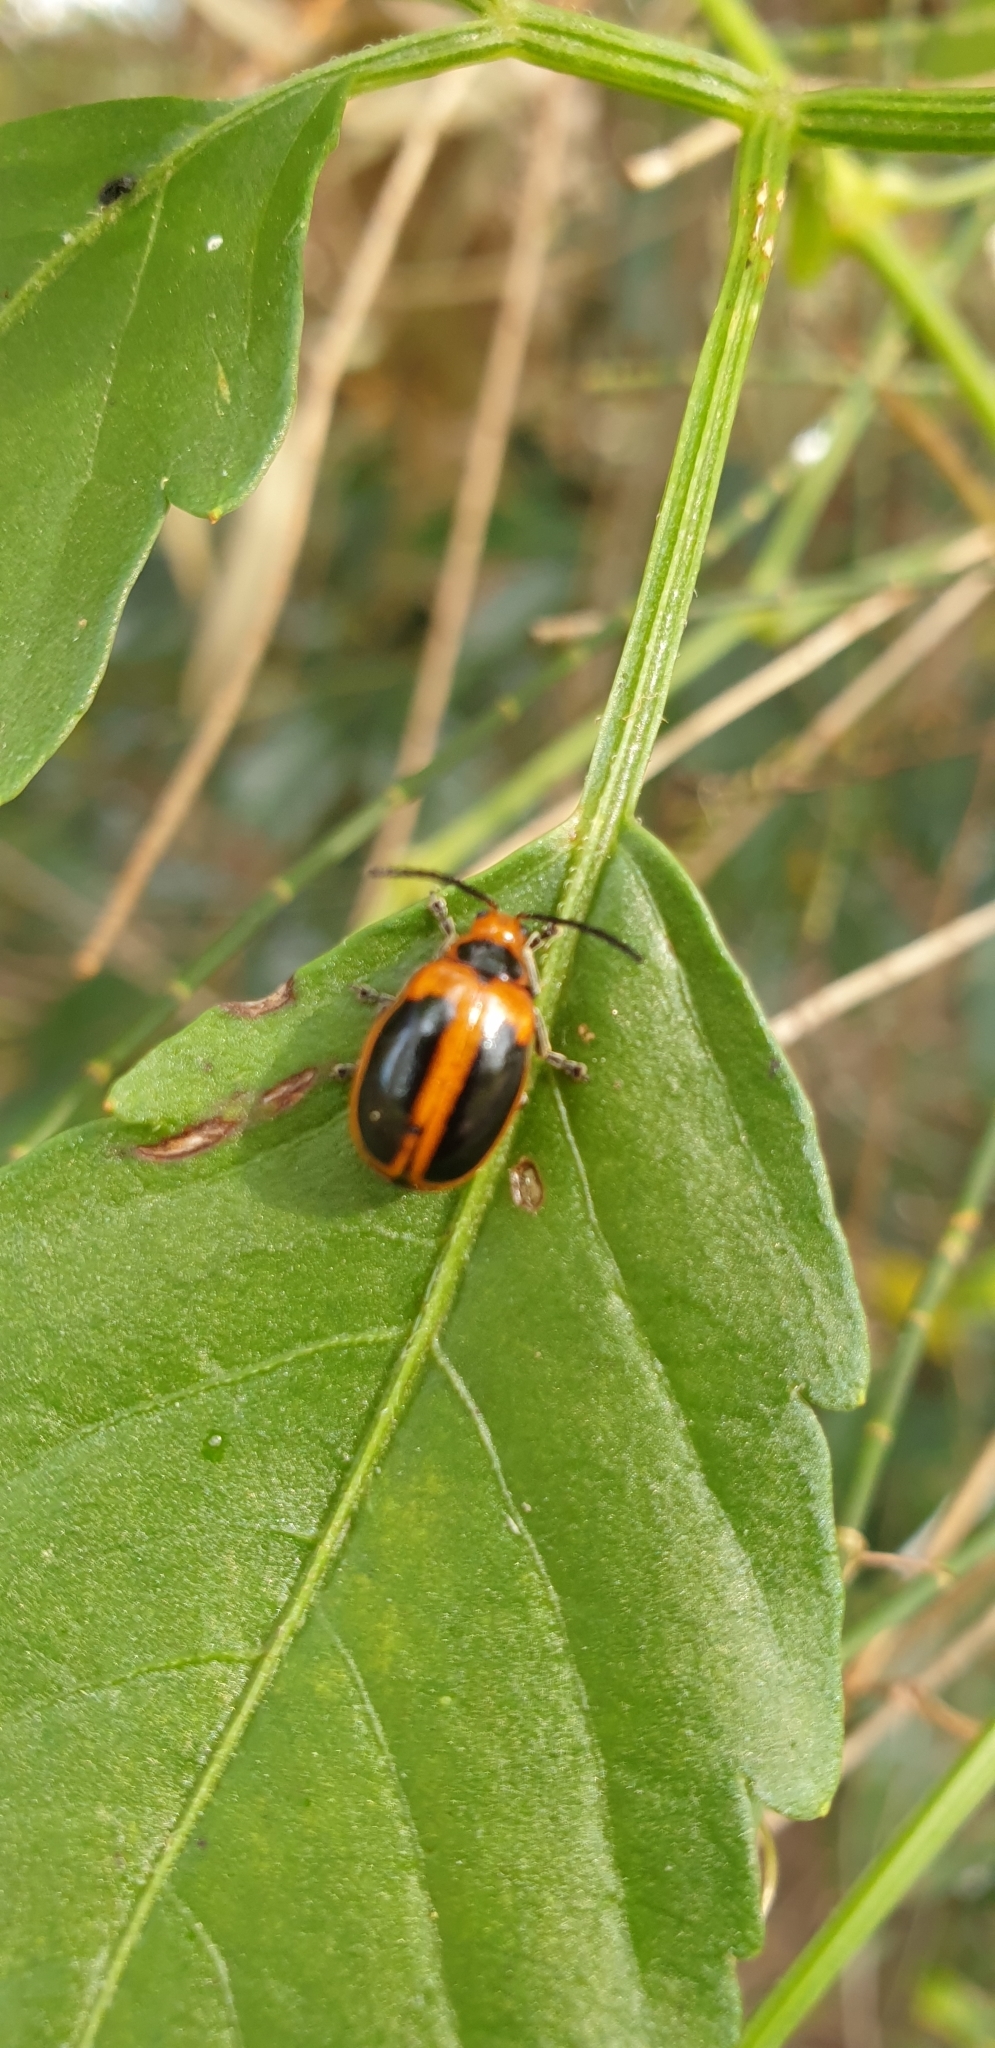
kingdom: Animalia
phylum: Arthropoda
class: Insecta
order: Coleoptera
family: Chrysomelidae
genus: Oides
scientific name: Oides
